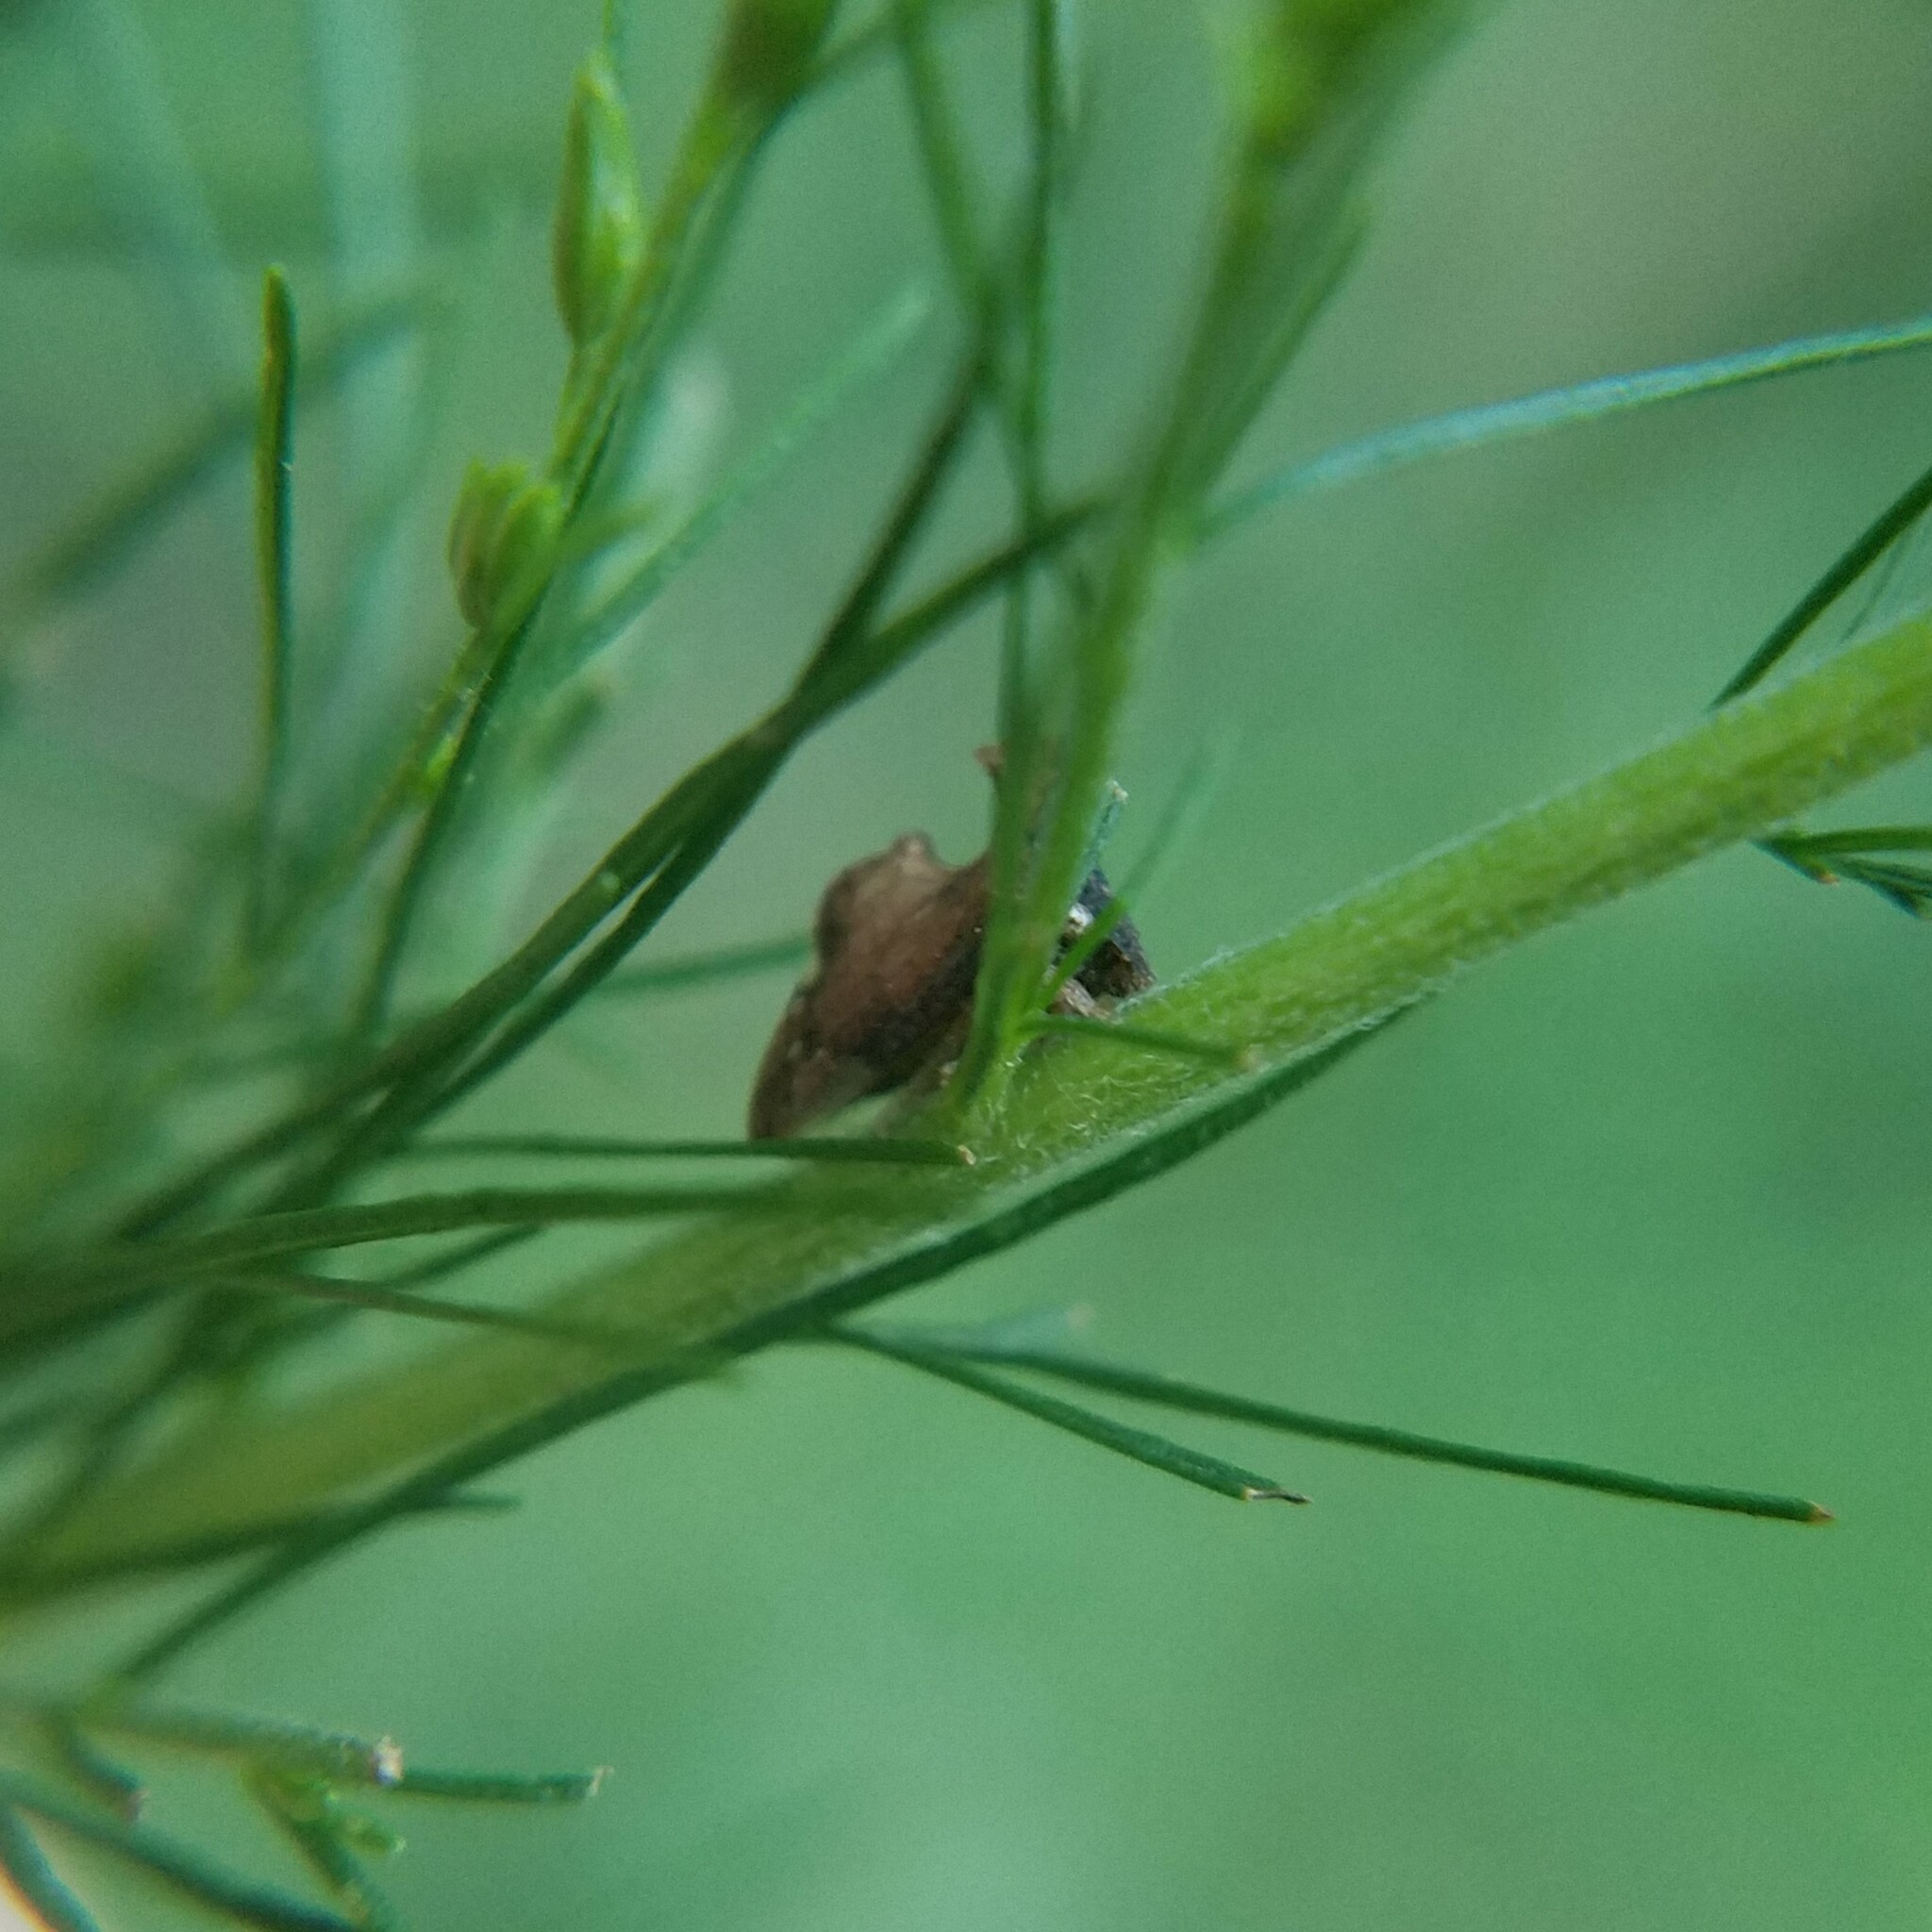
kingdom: Animalia
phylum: Arthropoda
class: Insecta
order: Hemiptera
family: Membracidae
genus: Entylia
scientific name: Entylia carinata
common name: Keeled treehopper
